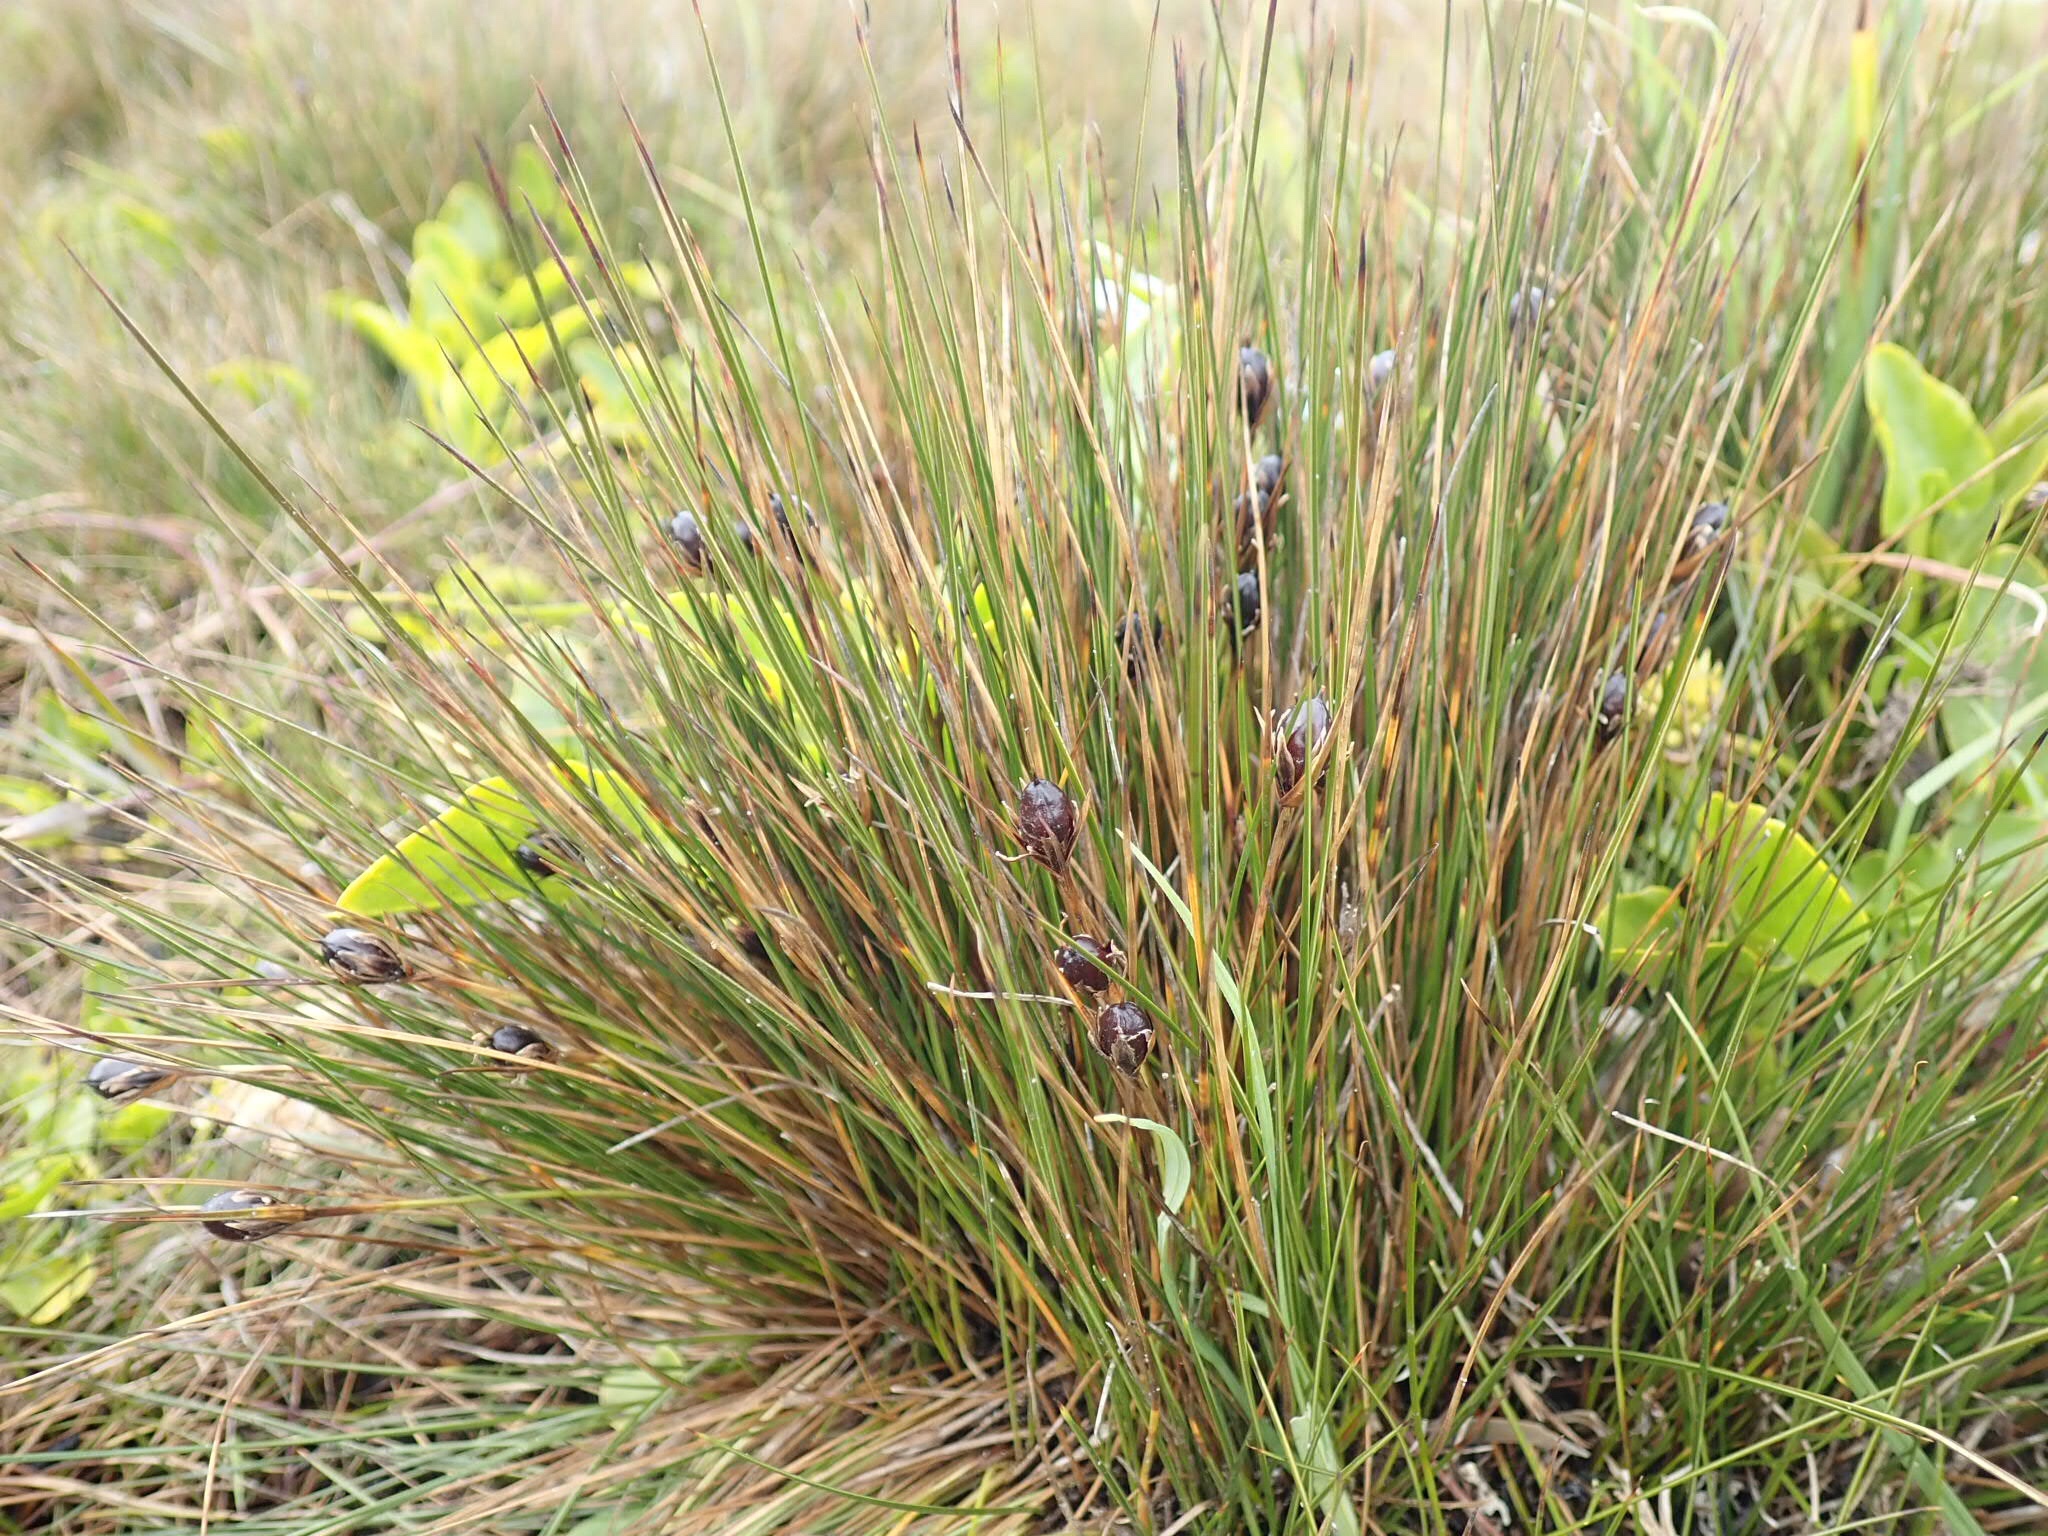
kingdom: Plantae
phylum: Tracheophyta
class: Liliopsida
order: Poales
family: Juncaceae
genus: Rostkovia
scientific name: Rostkovia magellanica
